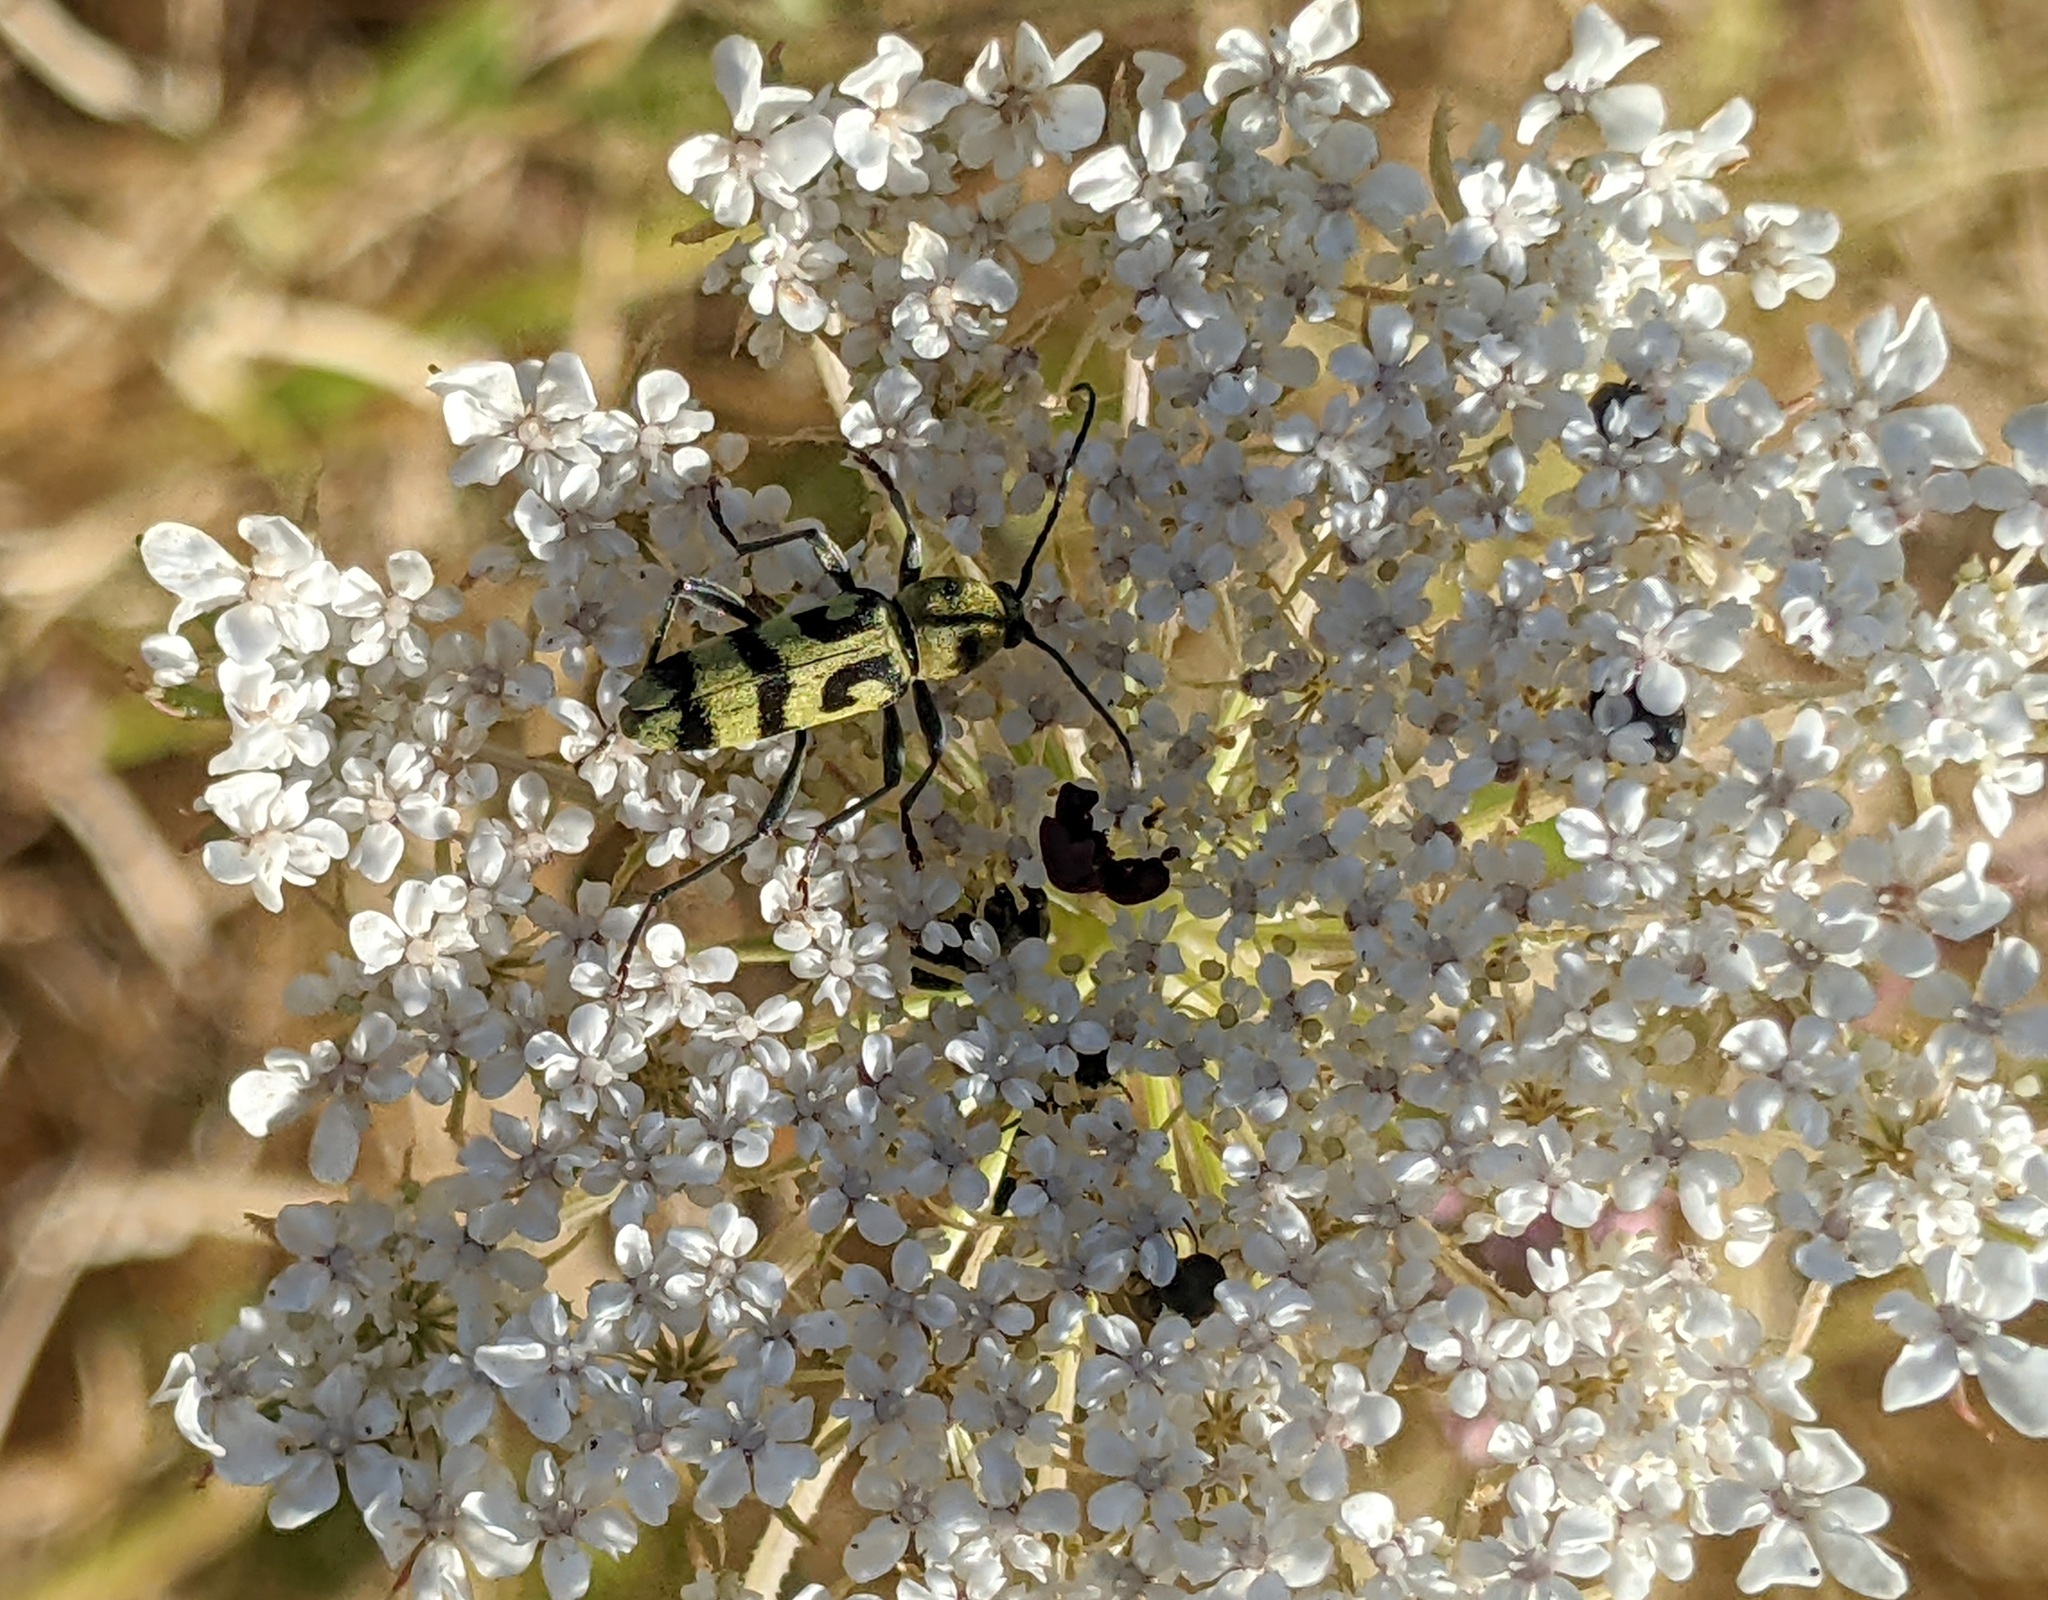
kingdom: Animalia
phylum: Arthropoda
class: Insecta
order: Coleoptera
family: Cerambycidae
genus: Chlorophorus
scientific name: Chlorophorus varius
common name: Grape wood borer
